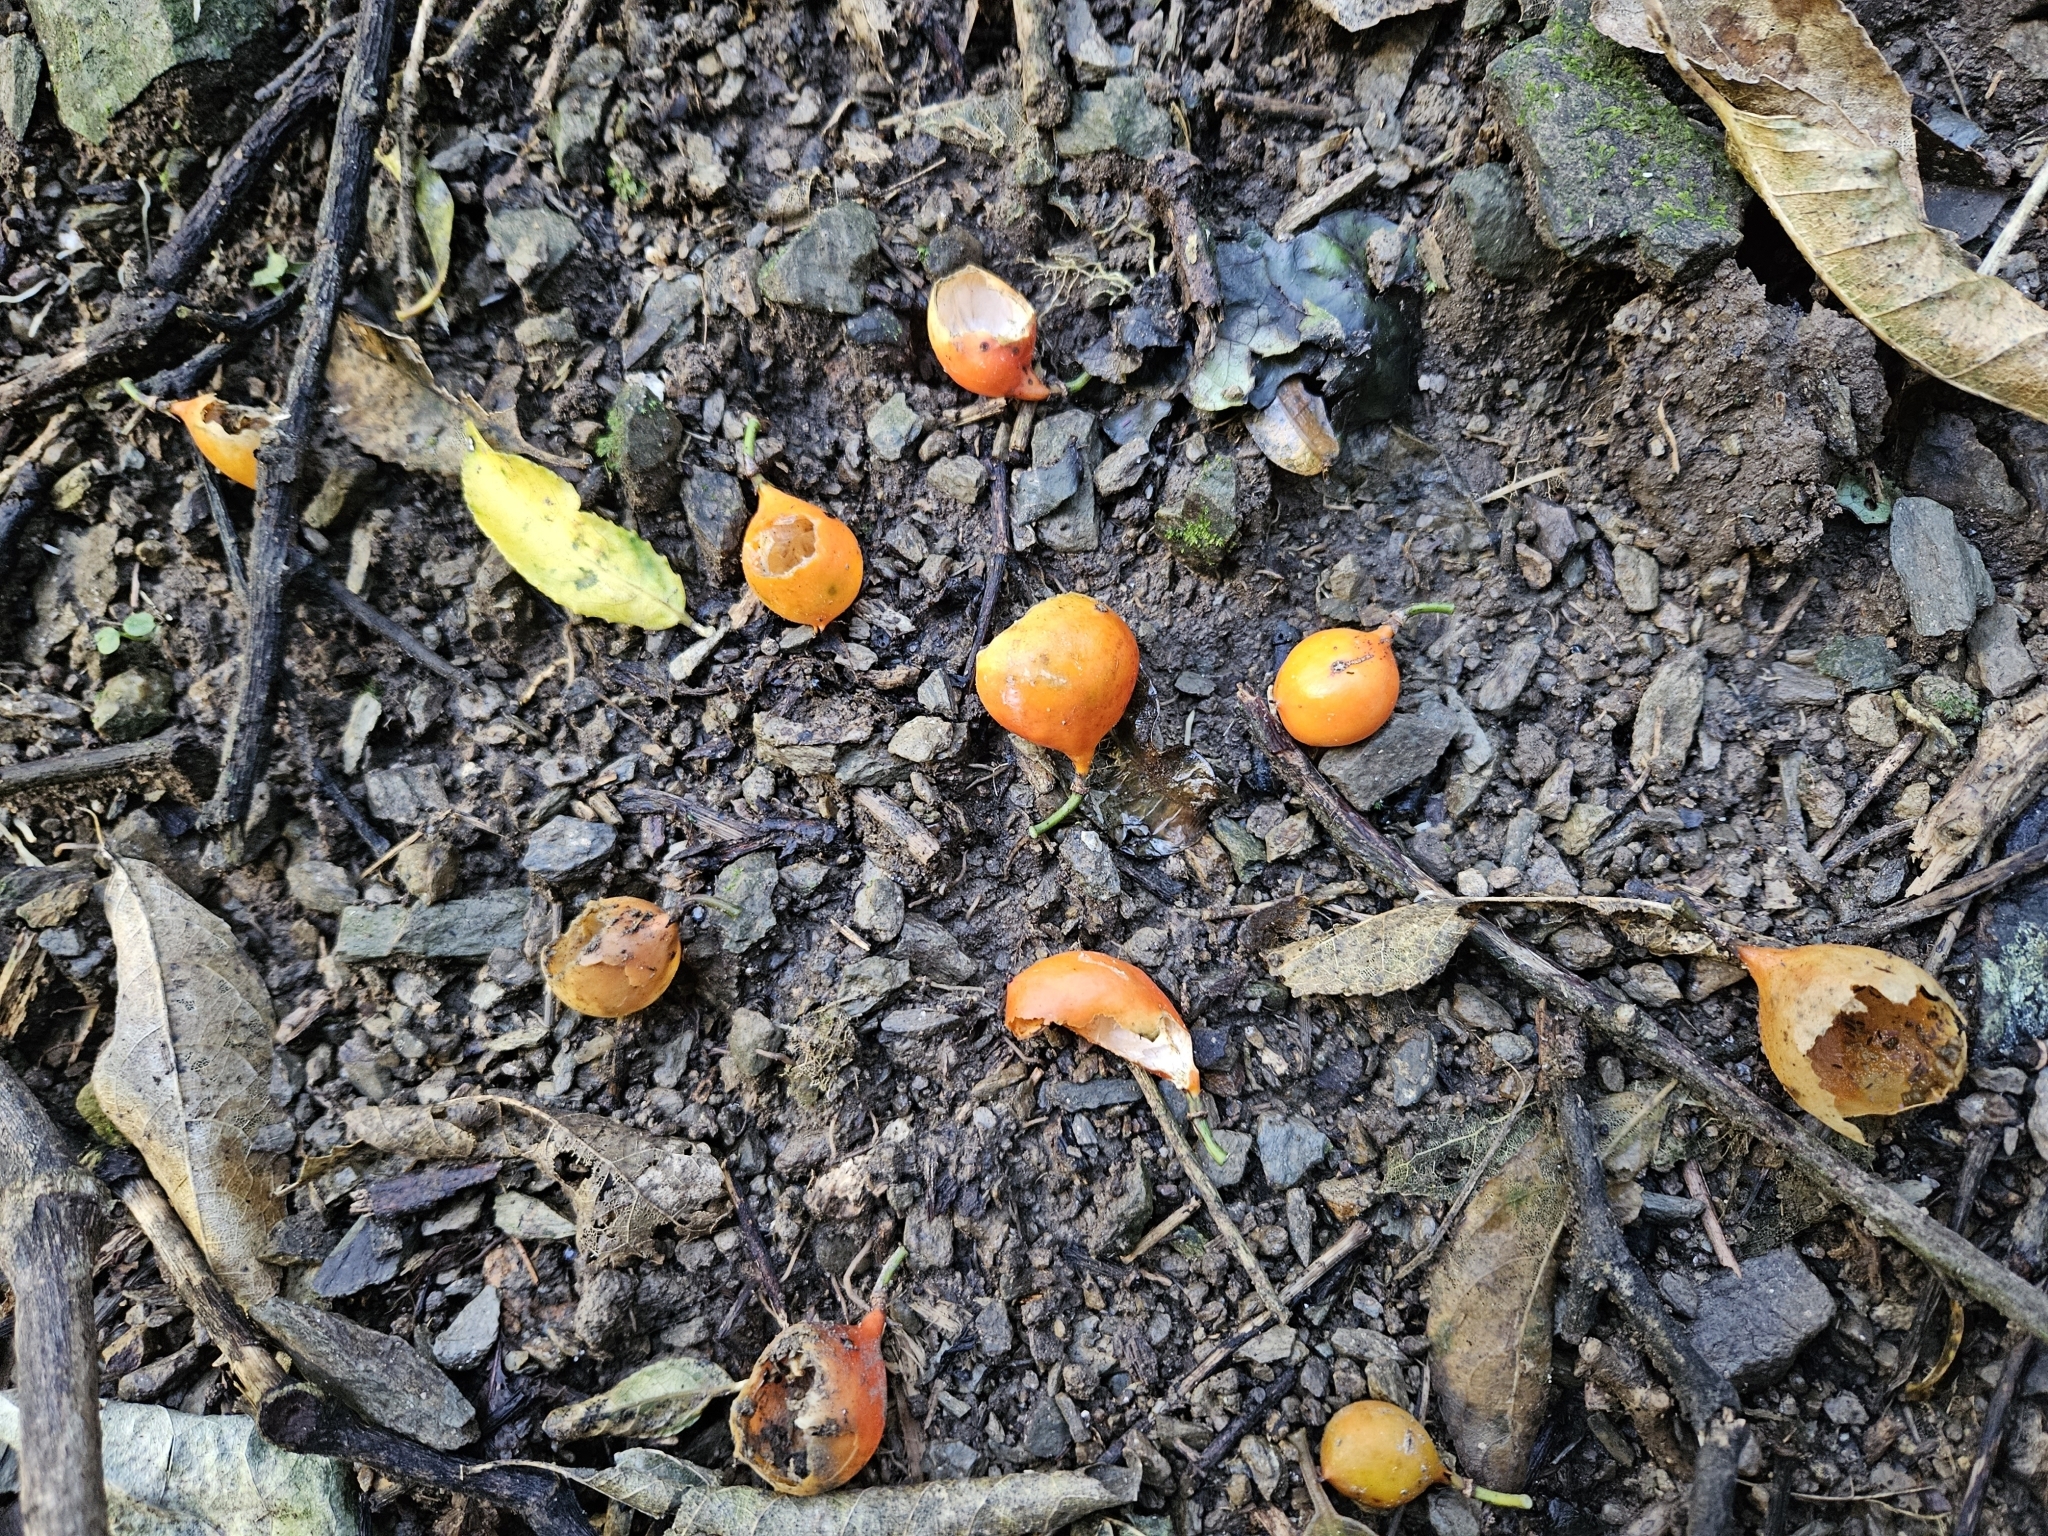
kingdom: Plantae
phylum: Tracheophyta
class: Magnoliopsida
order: Malpighiales
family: Passifloraceae
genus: Passiflora
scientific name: Passiflora tetrandra
